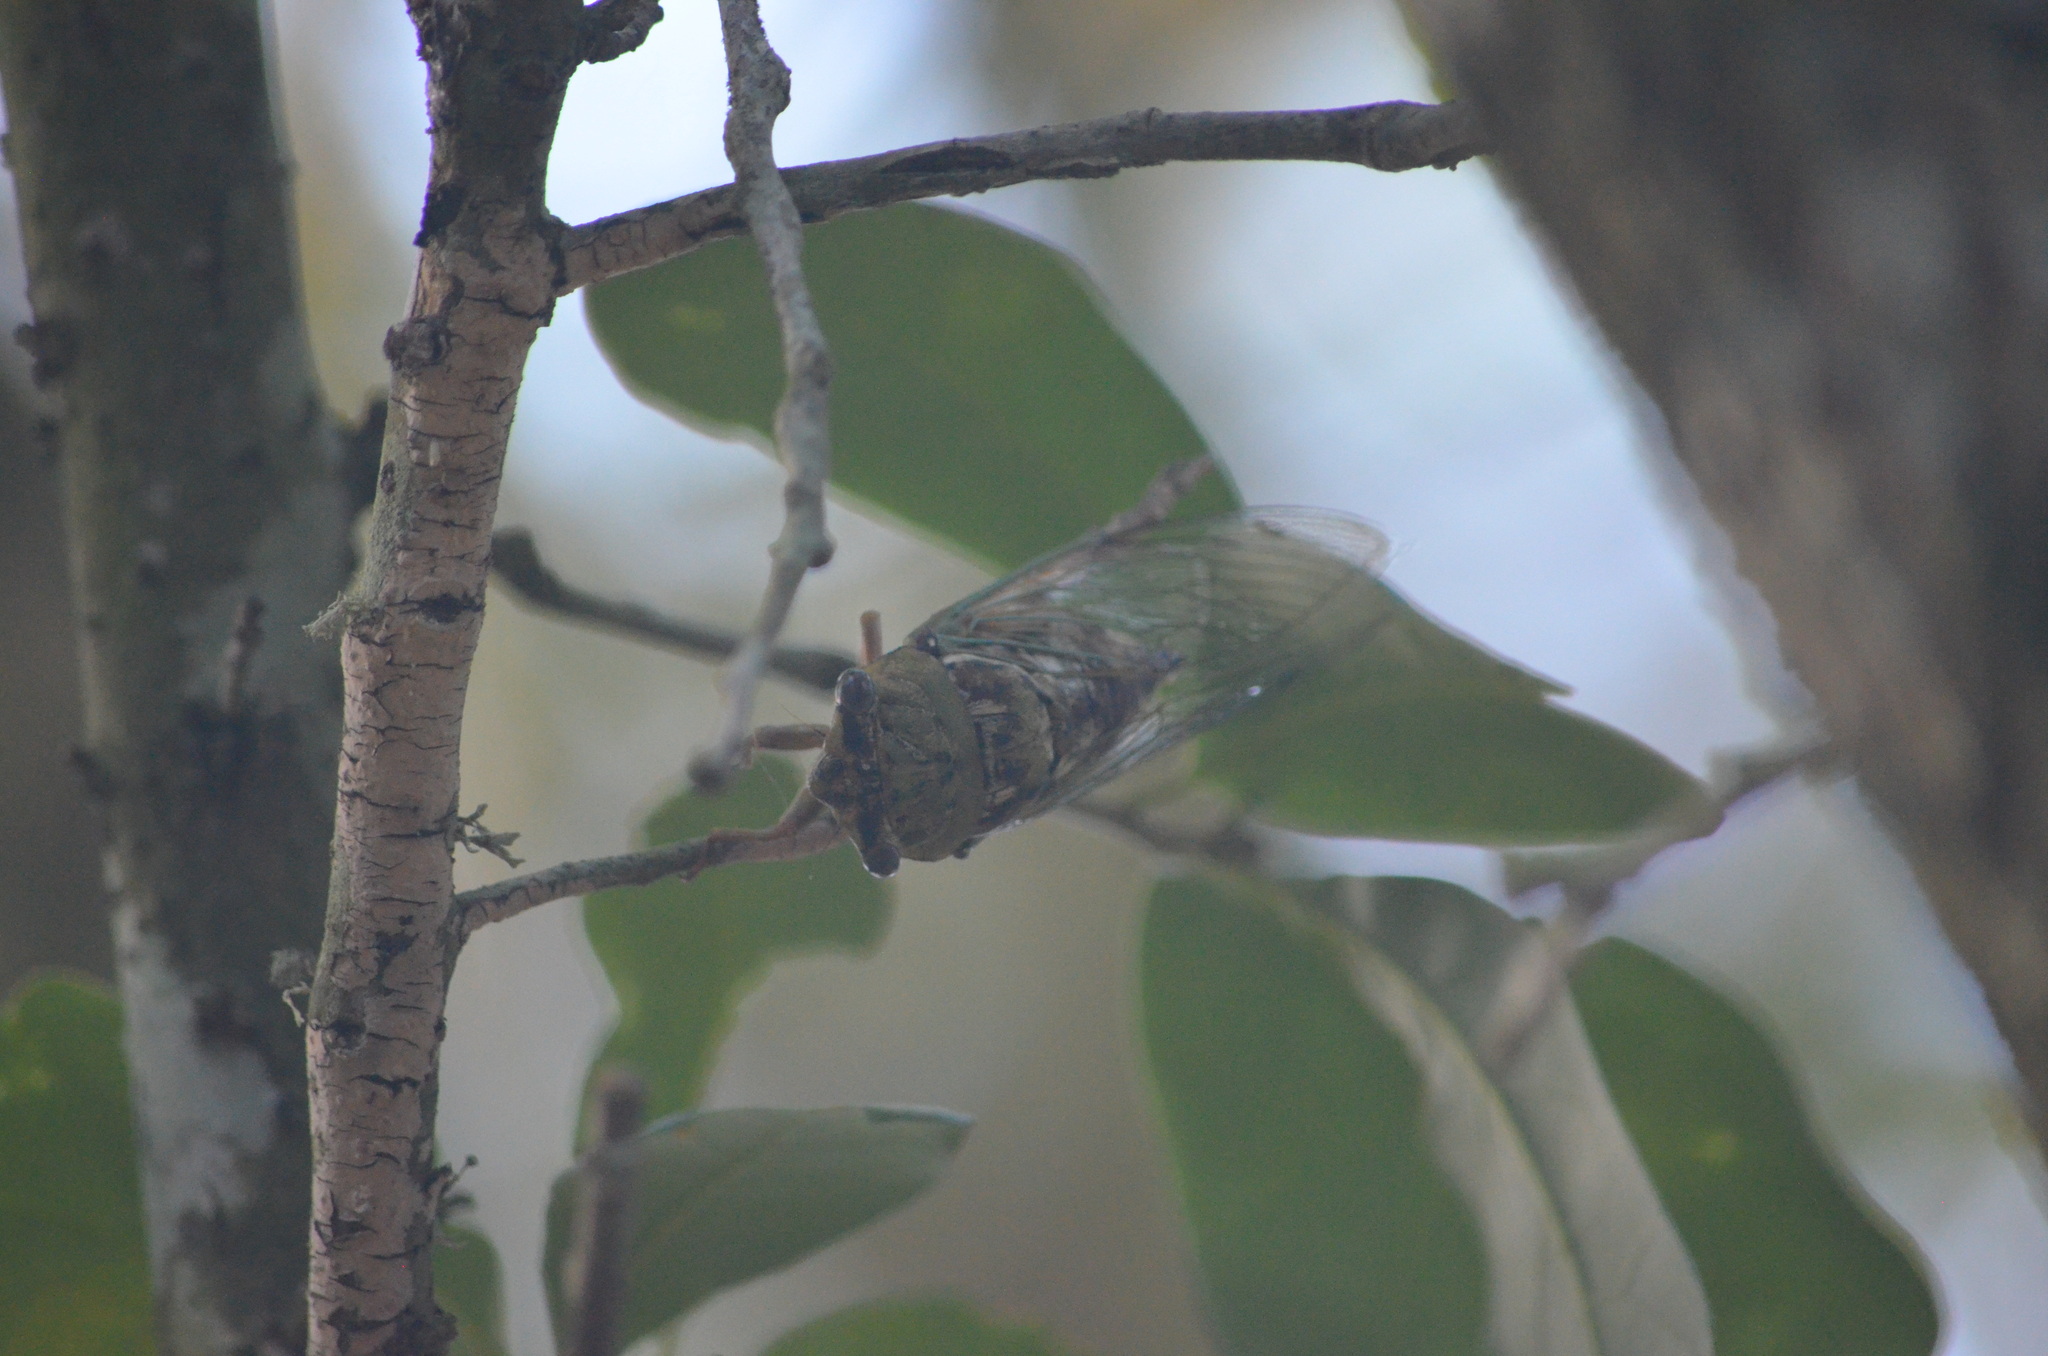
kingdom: Animalia
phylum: Arthropoda
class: Insecta
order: Hemiptera
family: Cicadidae
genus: Megatibicen
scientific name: Megatibicen resh
